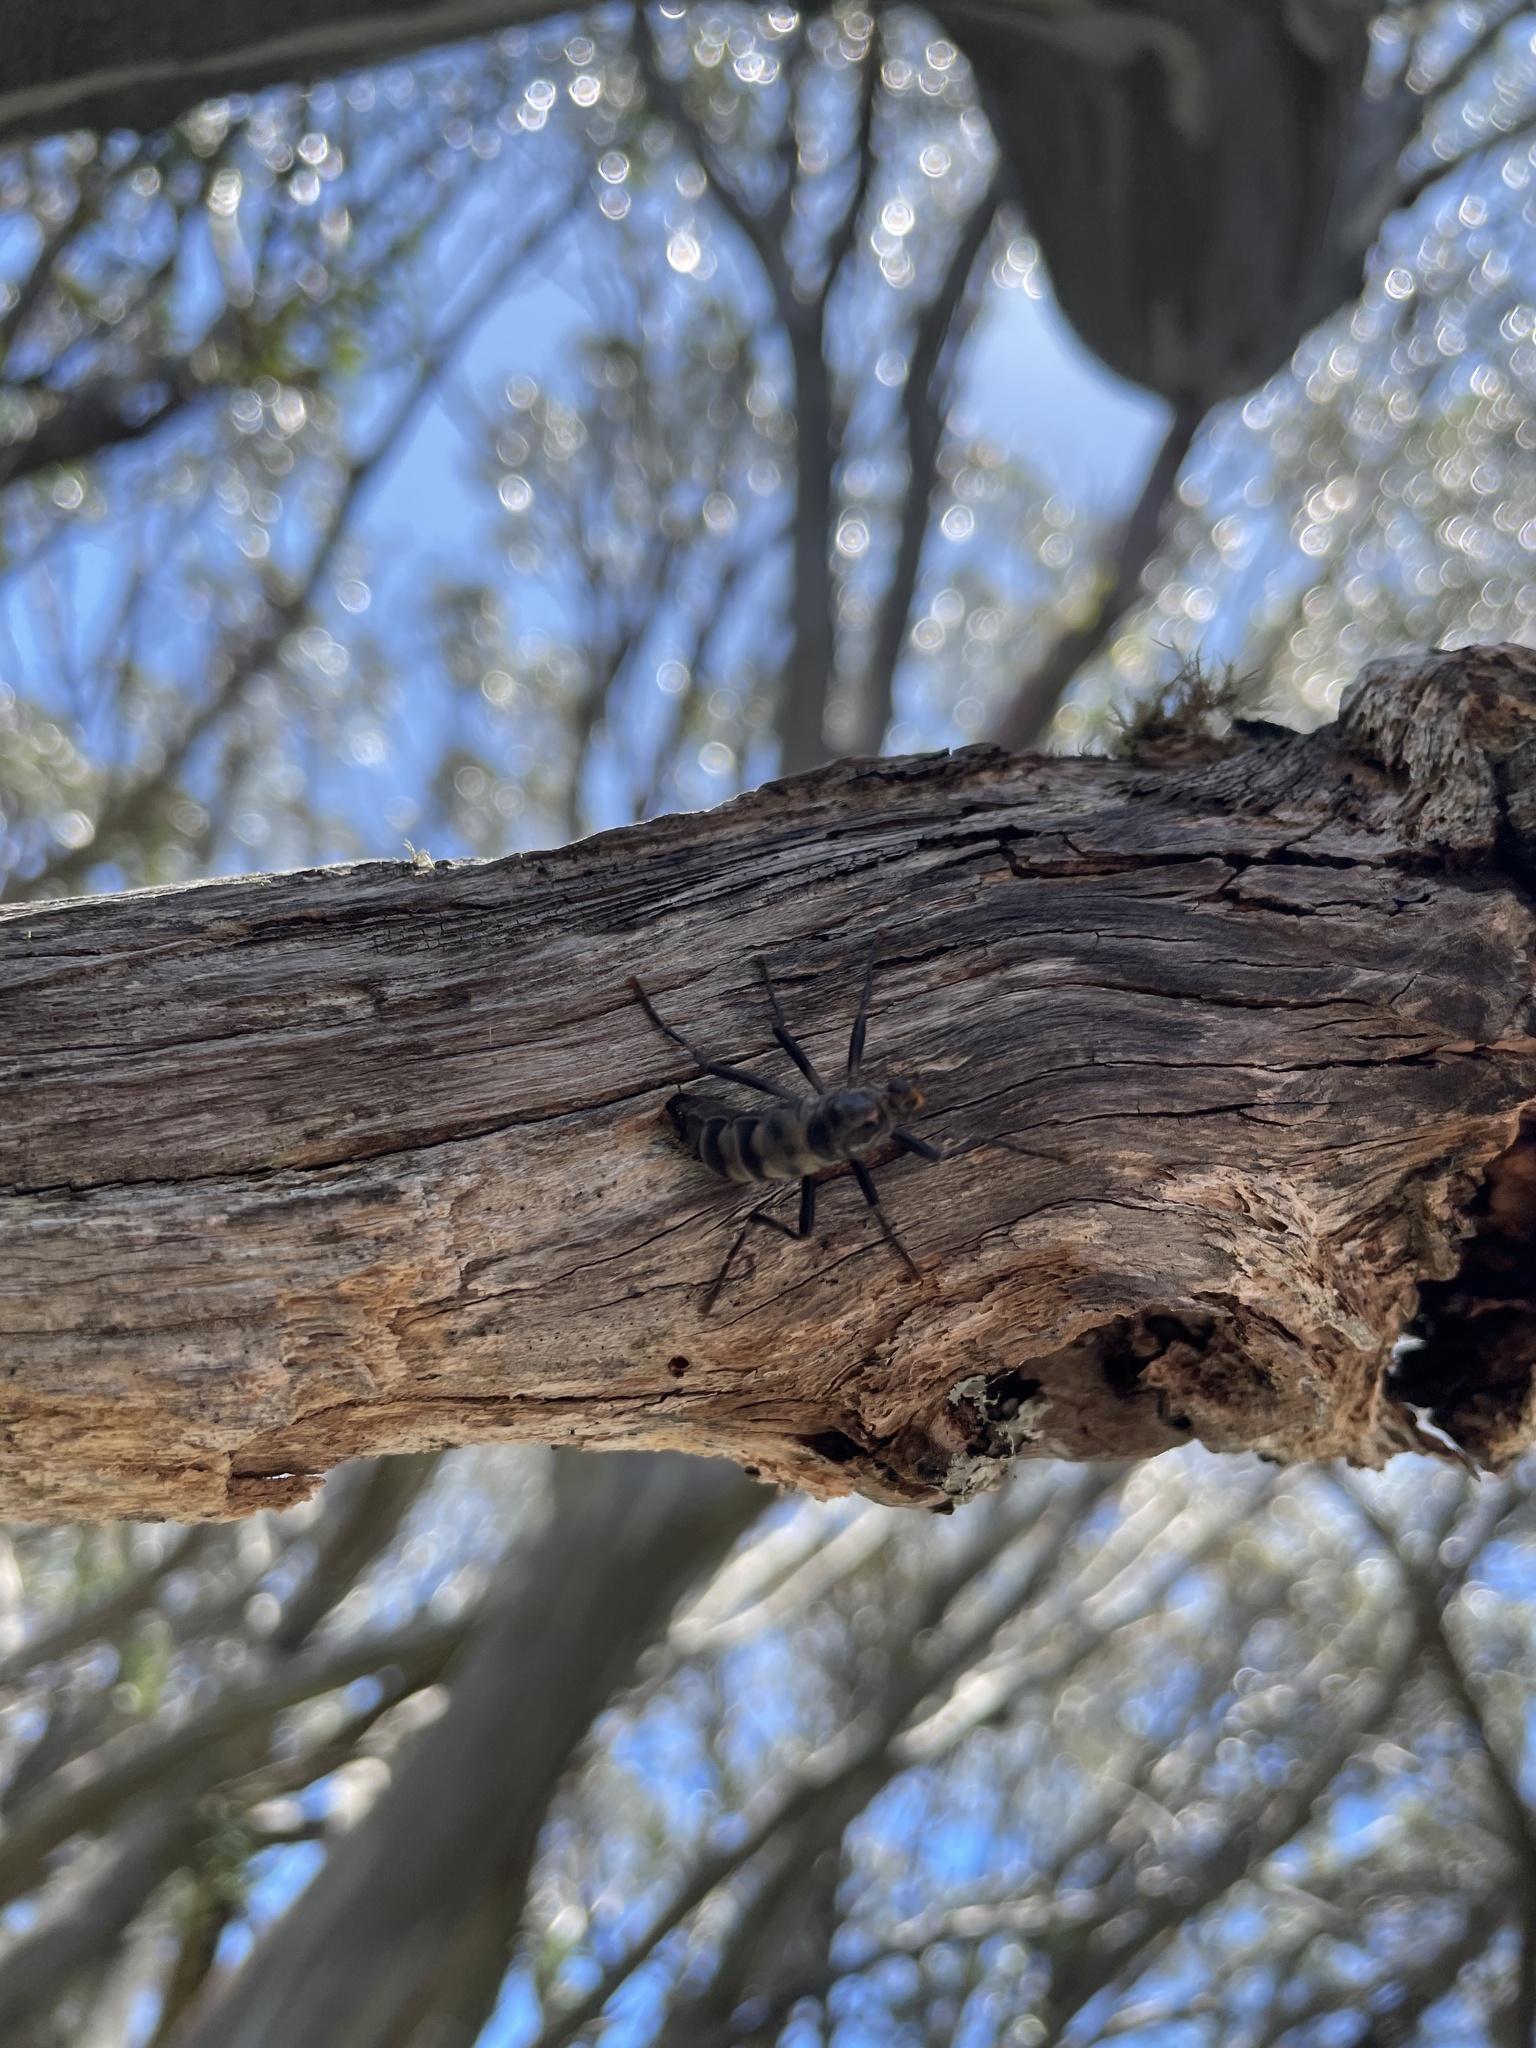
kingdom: Animalia
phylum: Arthropoda
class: Insecta
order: Diptera
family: Stratiomyidae
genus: Boreoides
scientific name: Boreoides subulatus
